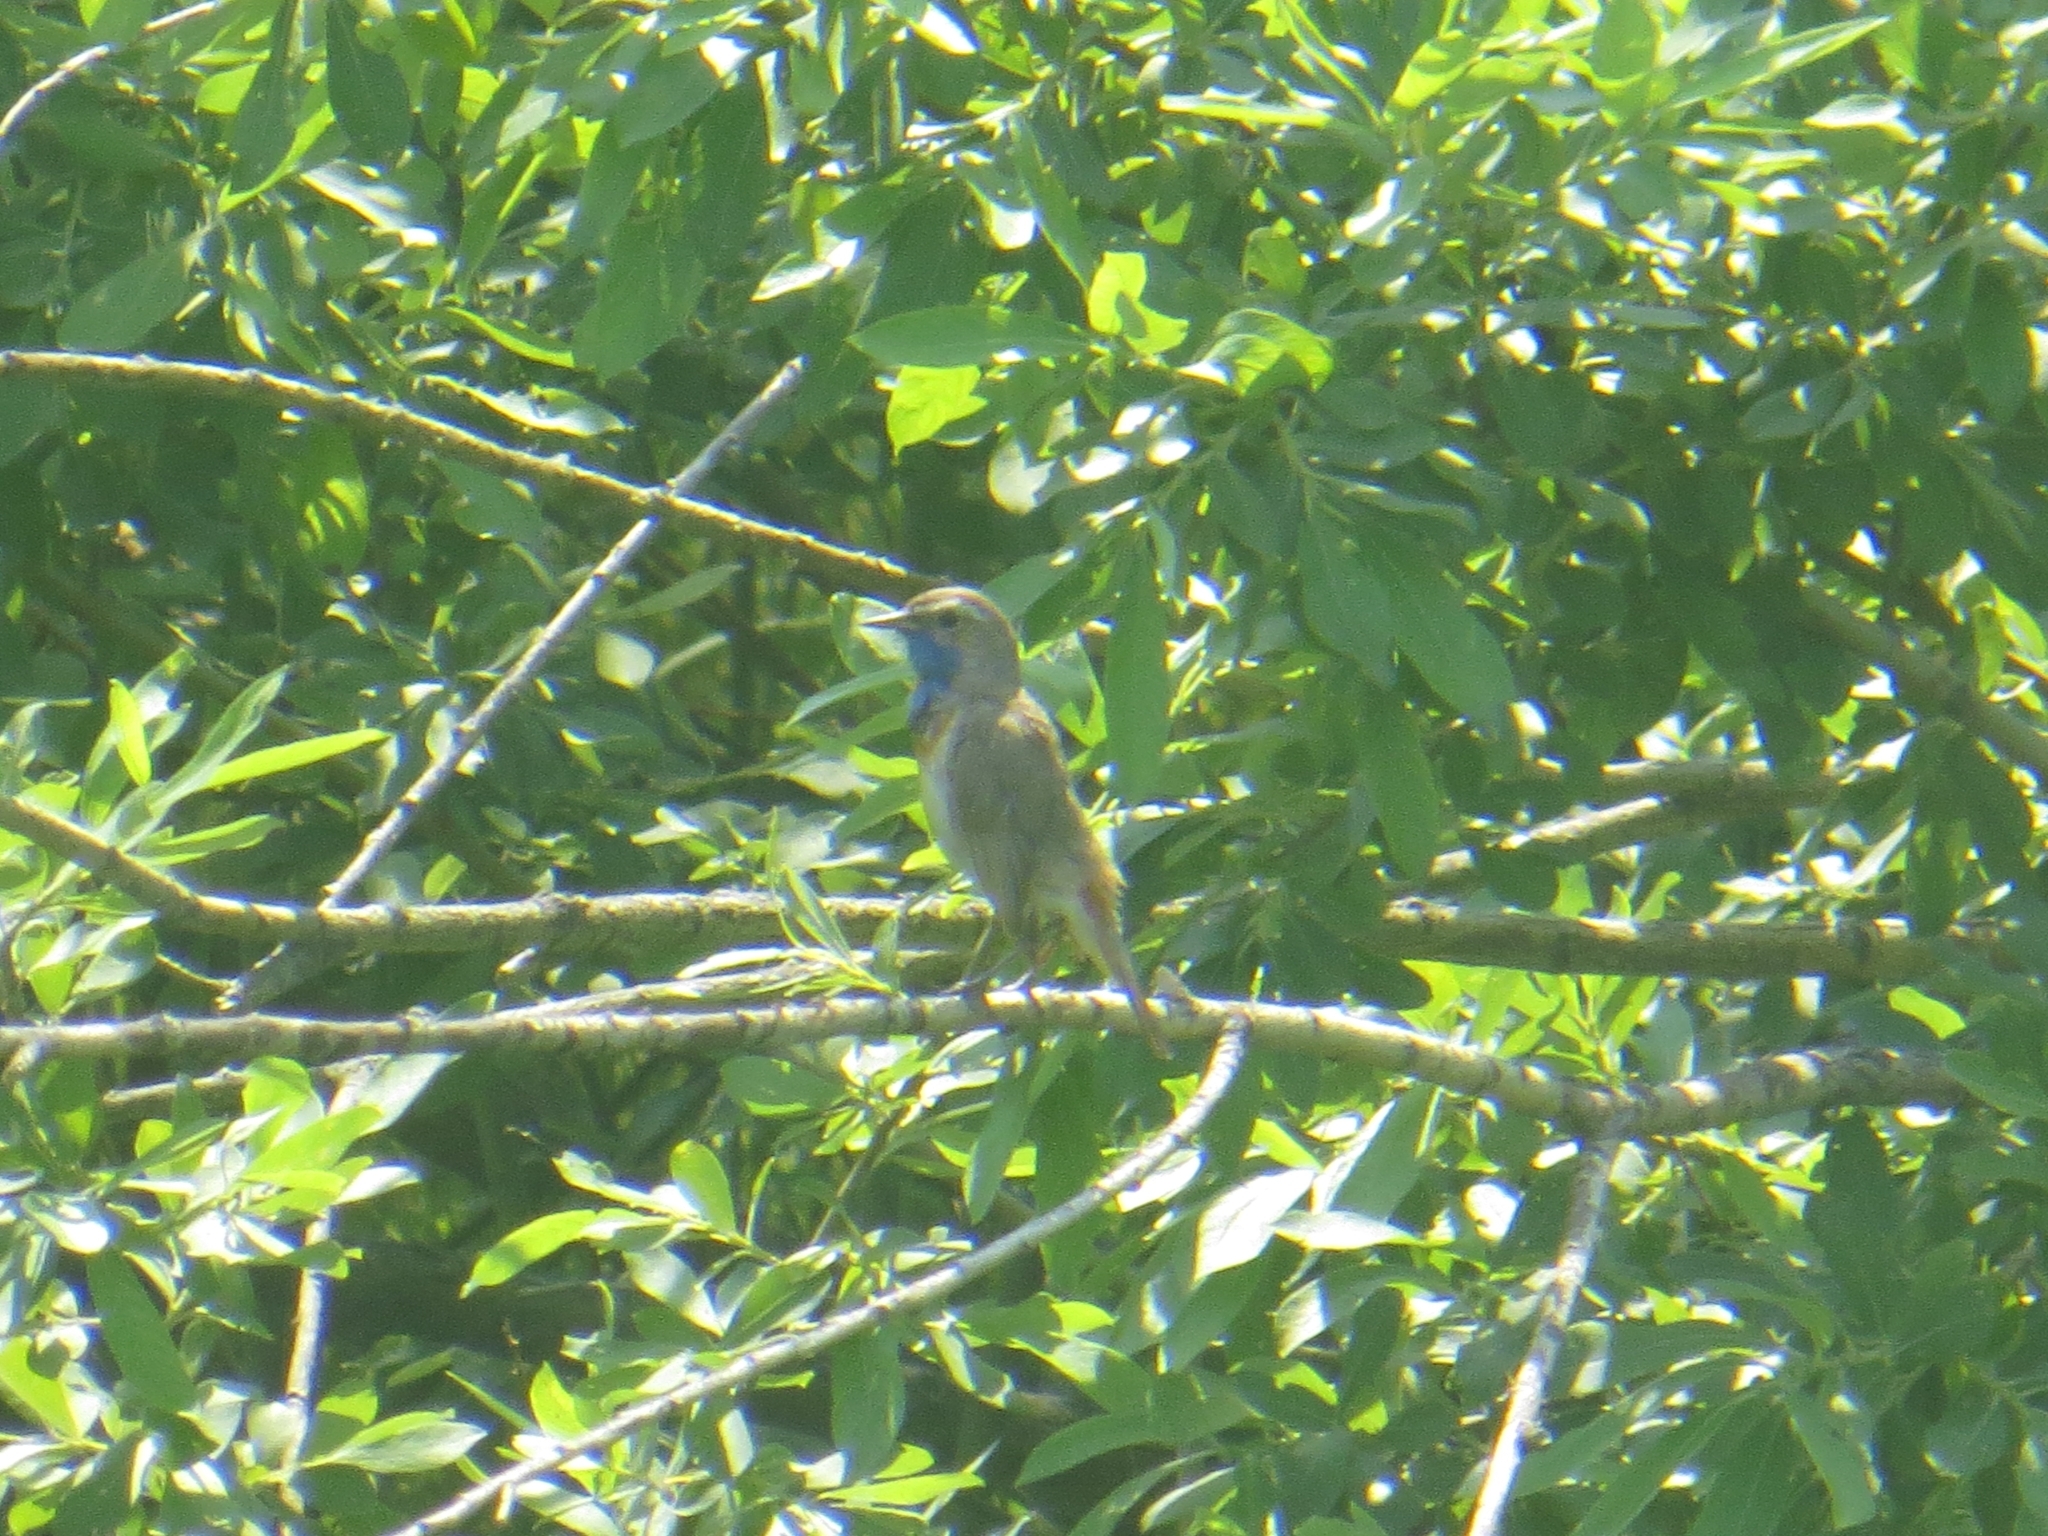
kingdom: Animalia
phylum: Chordata
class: Aves
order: Passeriformes
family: Muscicapidae
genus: Luscinia
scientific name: Luscinia svecica
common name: Bluethroat
